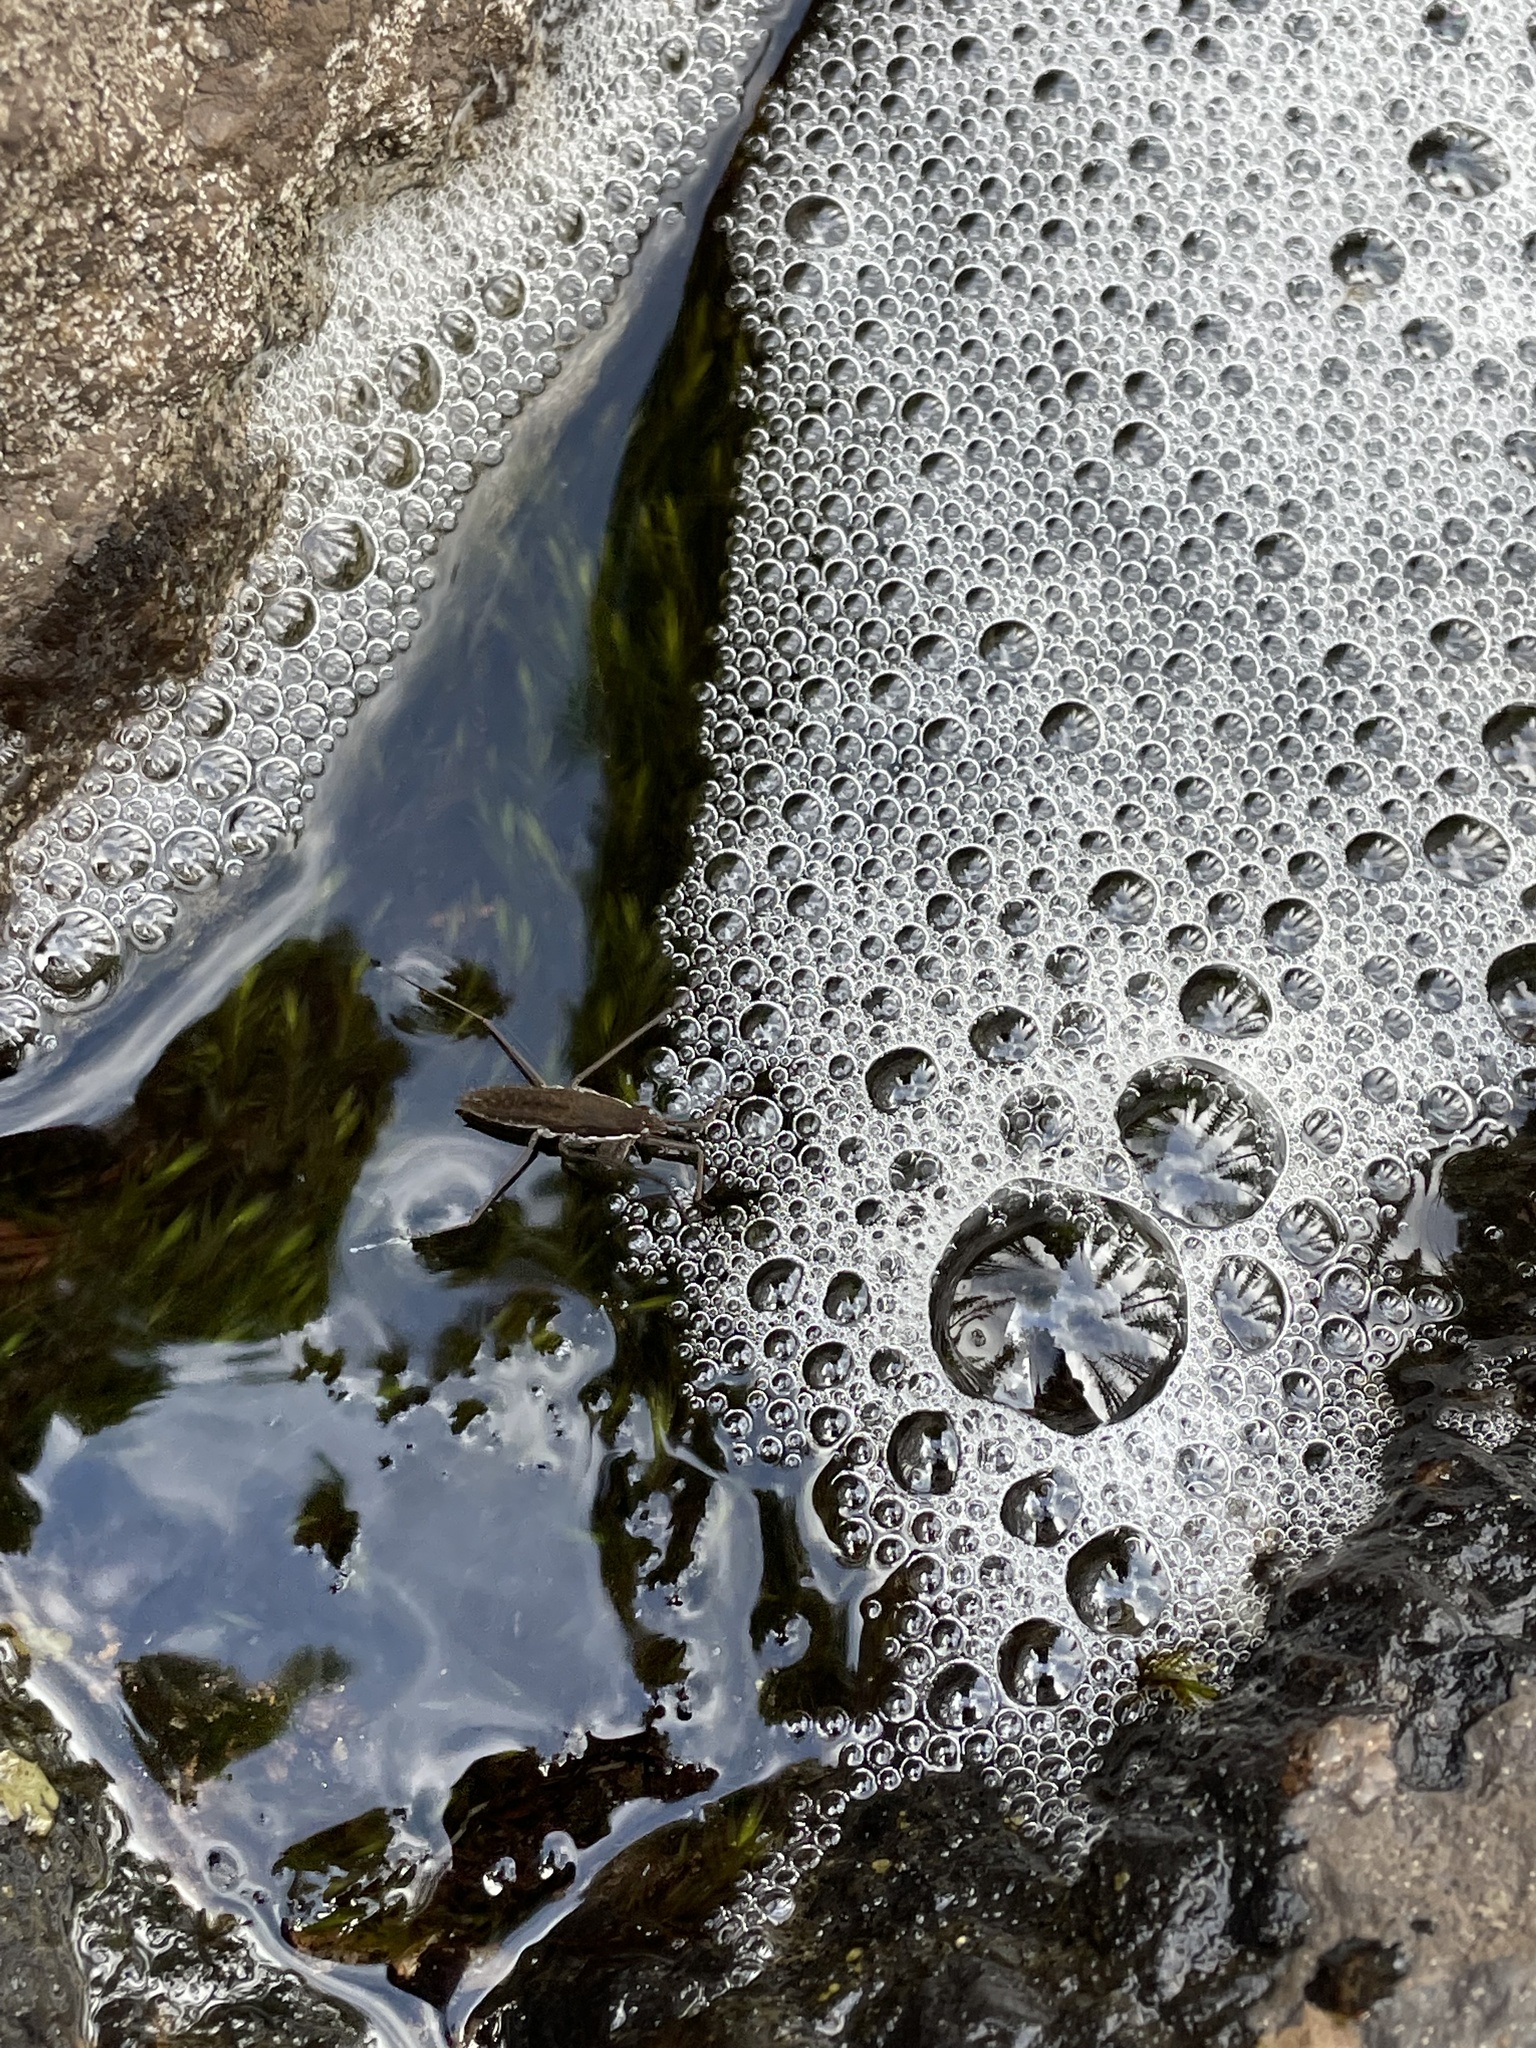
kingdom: Animalia
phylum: Arthropoda
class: Insecta
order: Hemiptera
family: Gerridae
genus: Aquarius
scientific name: Aquarius remigis
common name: Common water strider
